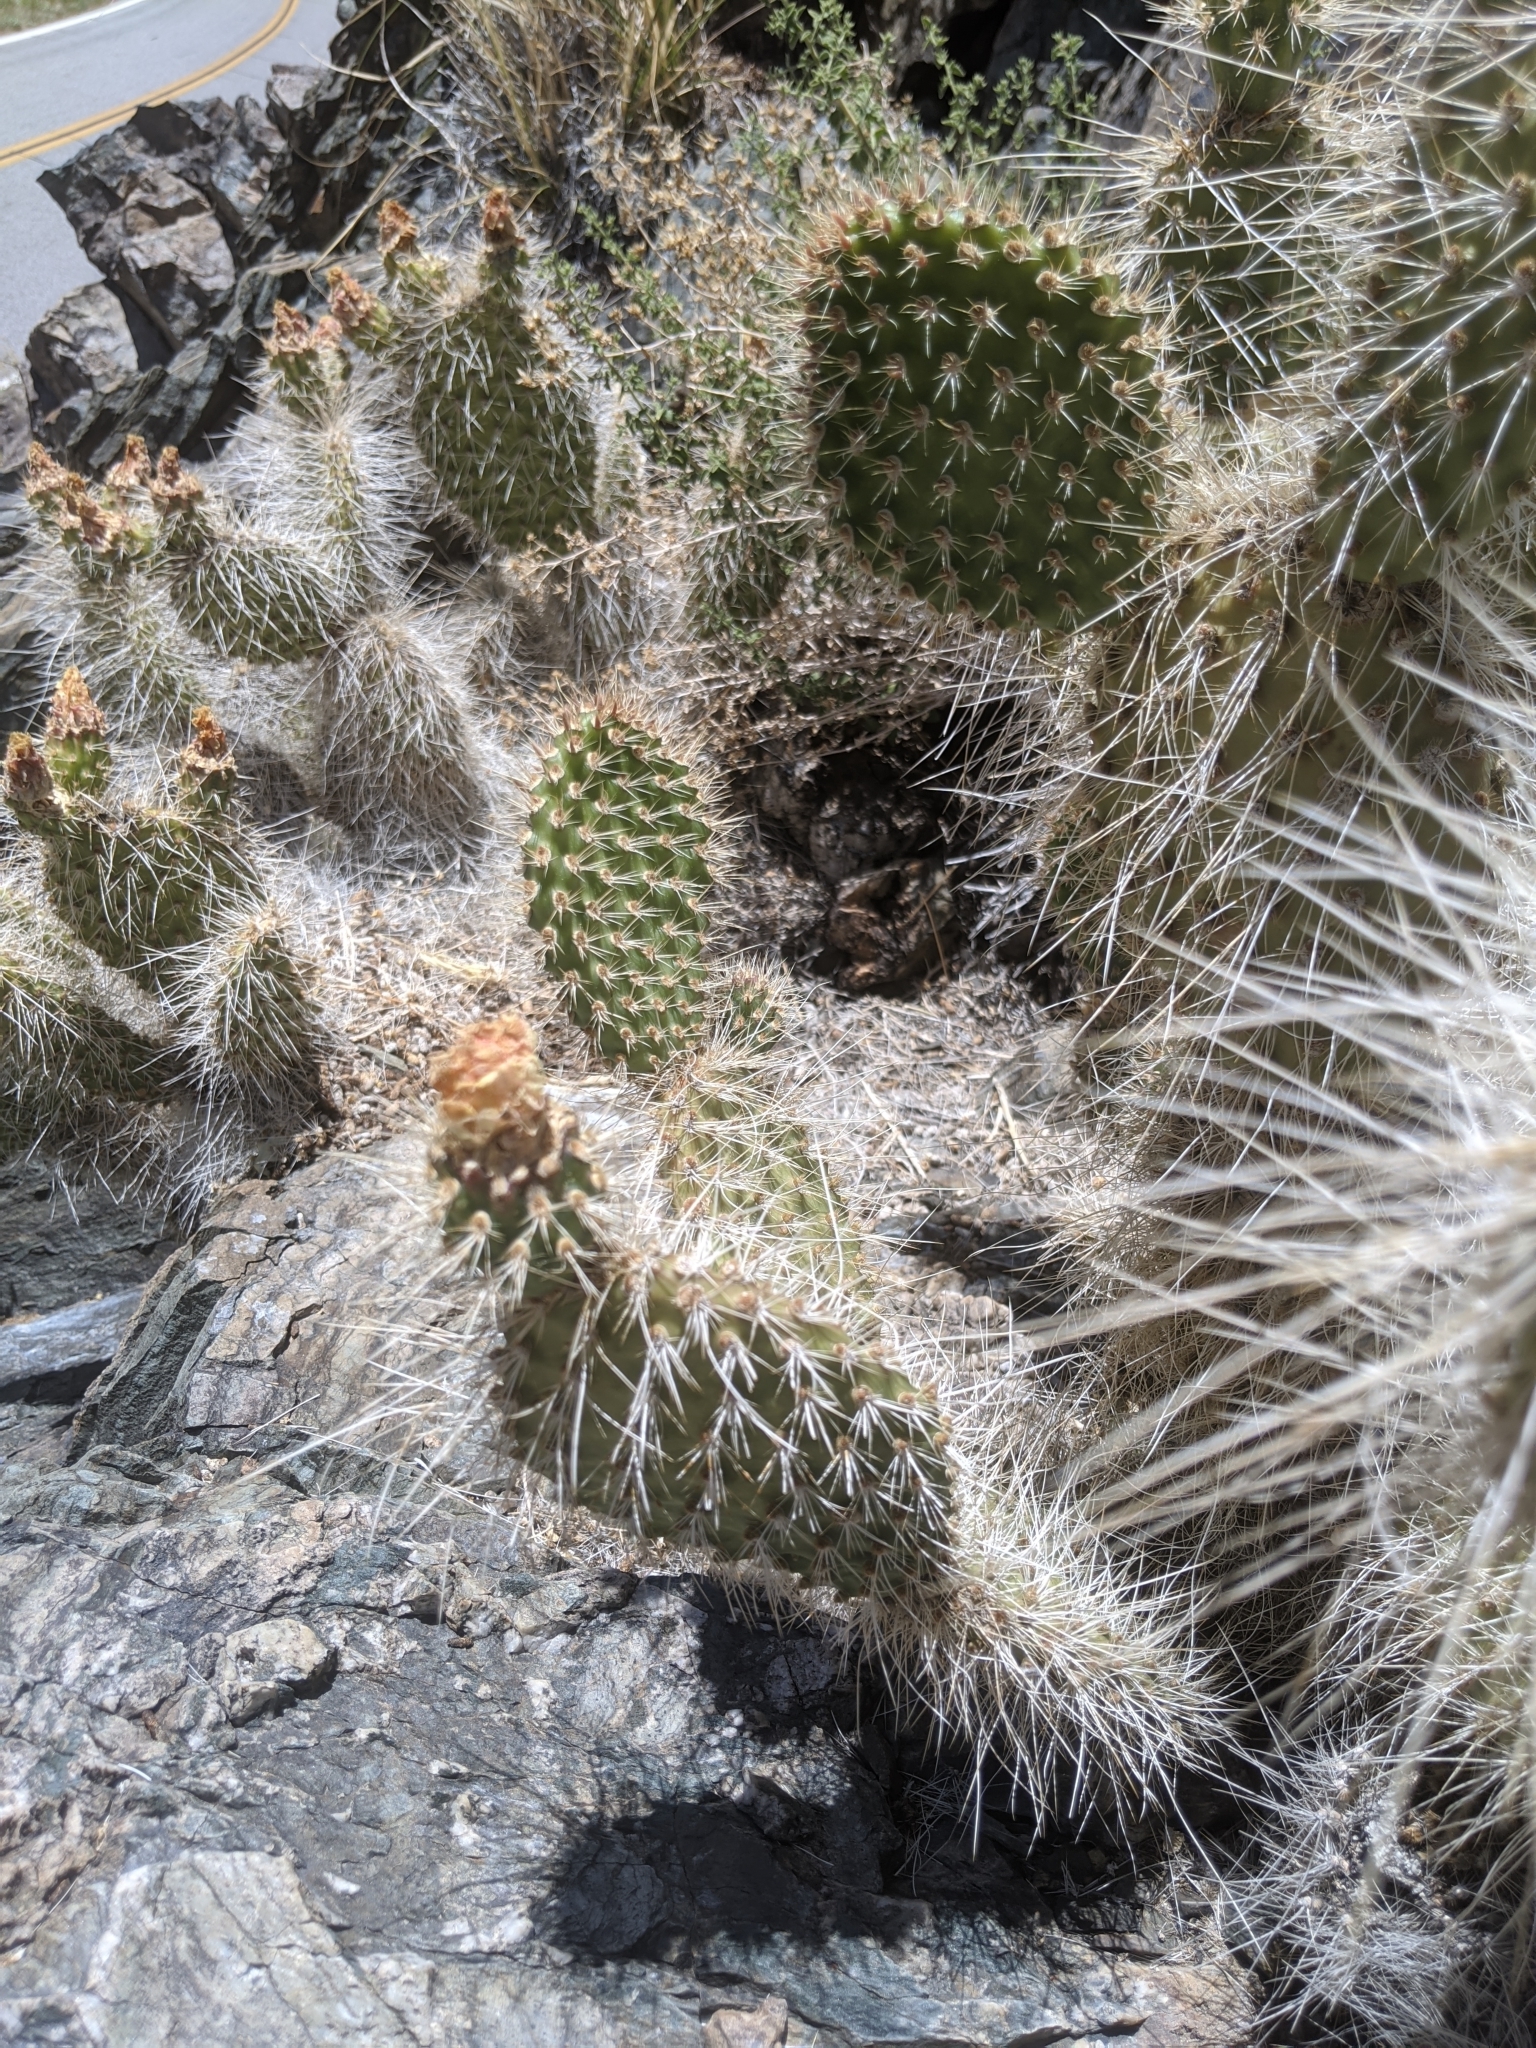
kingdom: Plantae
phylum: Tracheophyta
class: Magnoliopsida
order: Caryophyllales
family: Cactaceae
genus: Opuntia
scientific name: Opuntia polyacantha
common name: Plains prickly-pear
